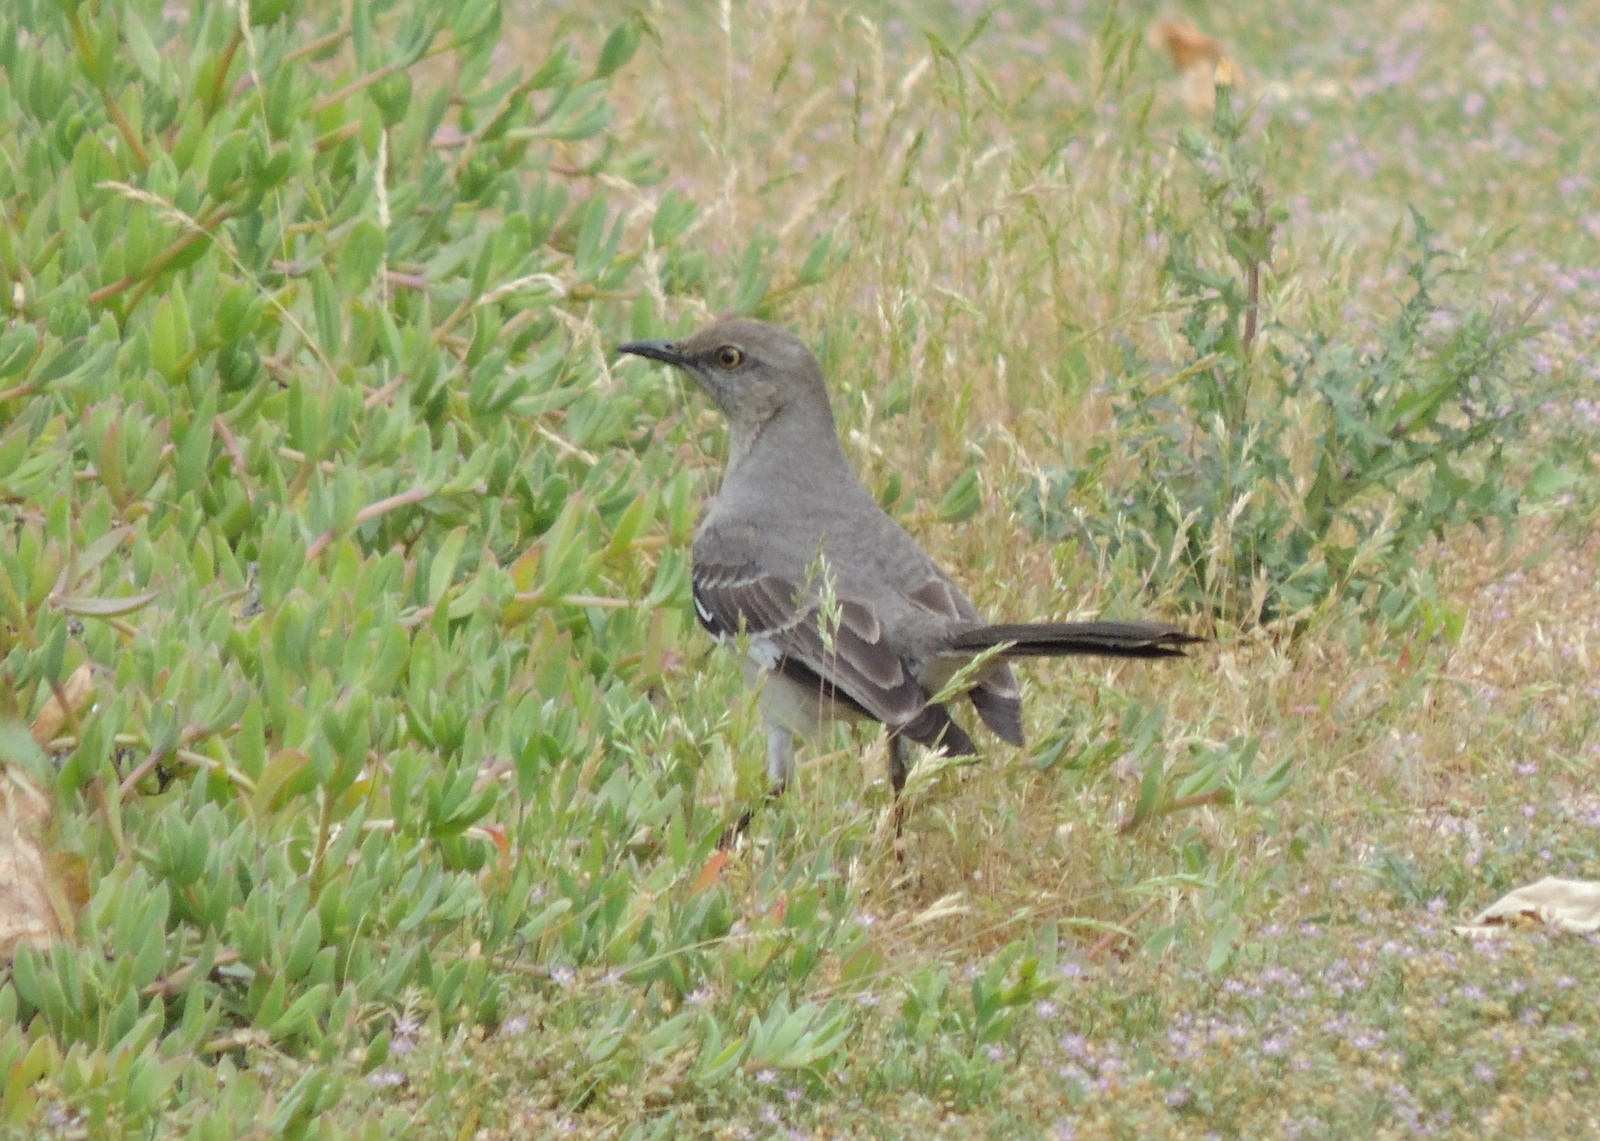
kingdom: Animalia
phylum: Chordata
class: Aves
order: Passeriformes
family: Mimidae
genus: Mimus
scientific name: Mimus polyglottos
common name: Northern mockingbird
